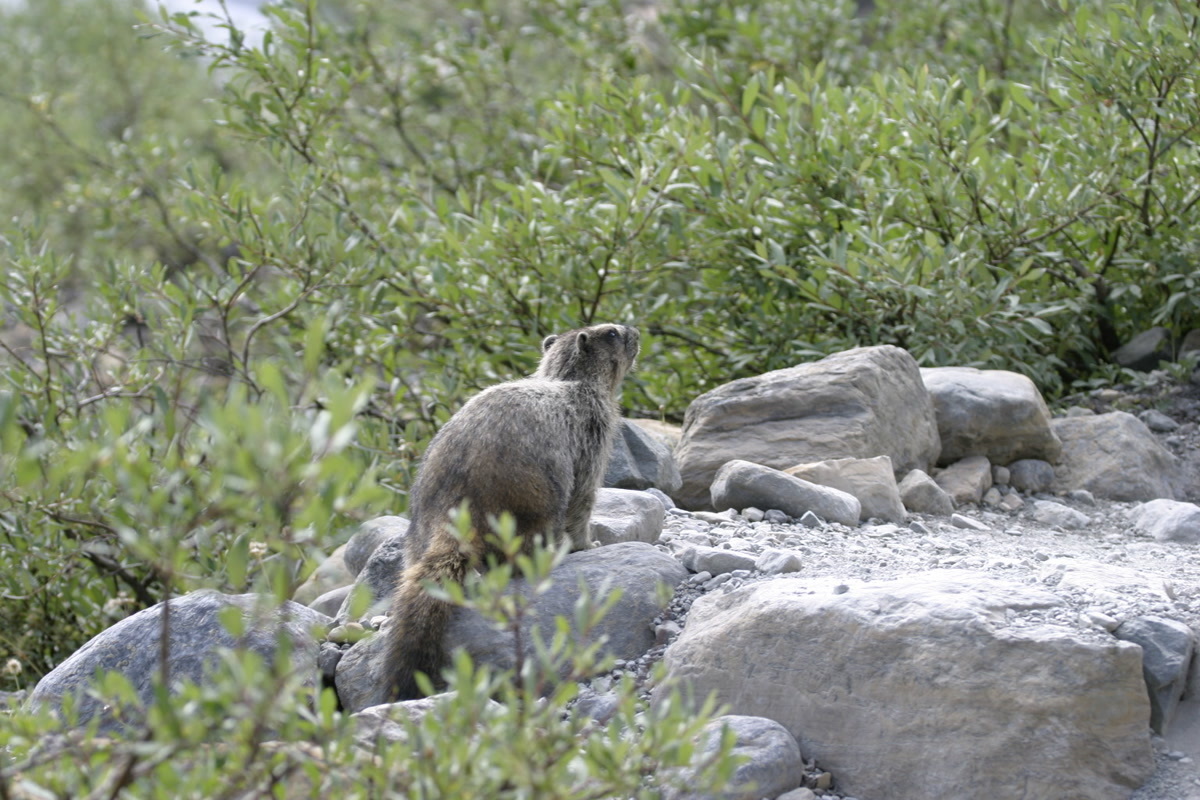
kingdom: Animalia
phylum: Chordata
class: Mammalia
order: Rodentia
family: Sciuridae
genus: Marmota
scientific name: Marmota caligata
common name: Hoary marmot
